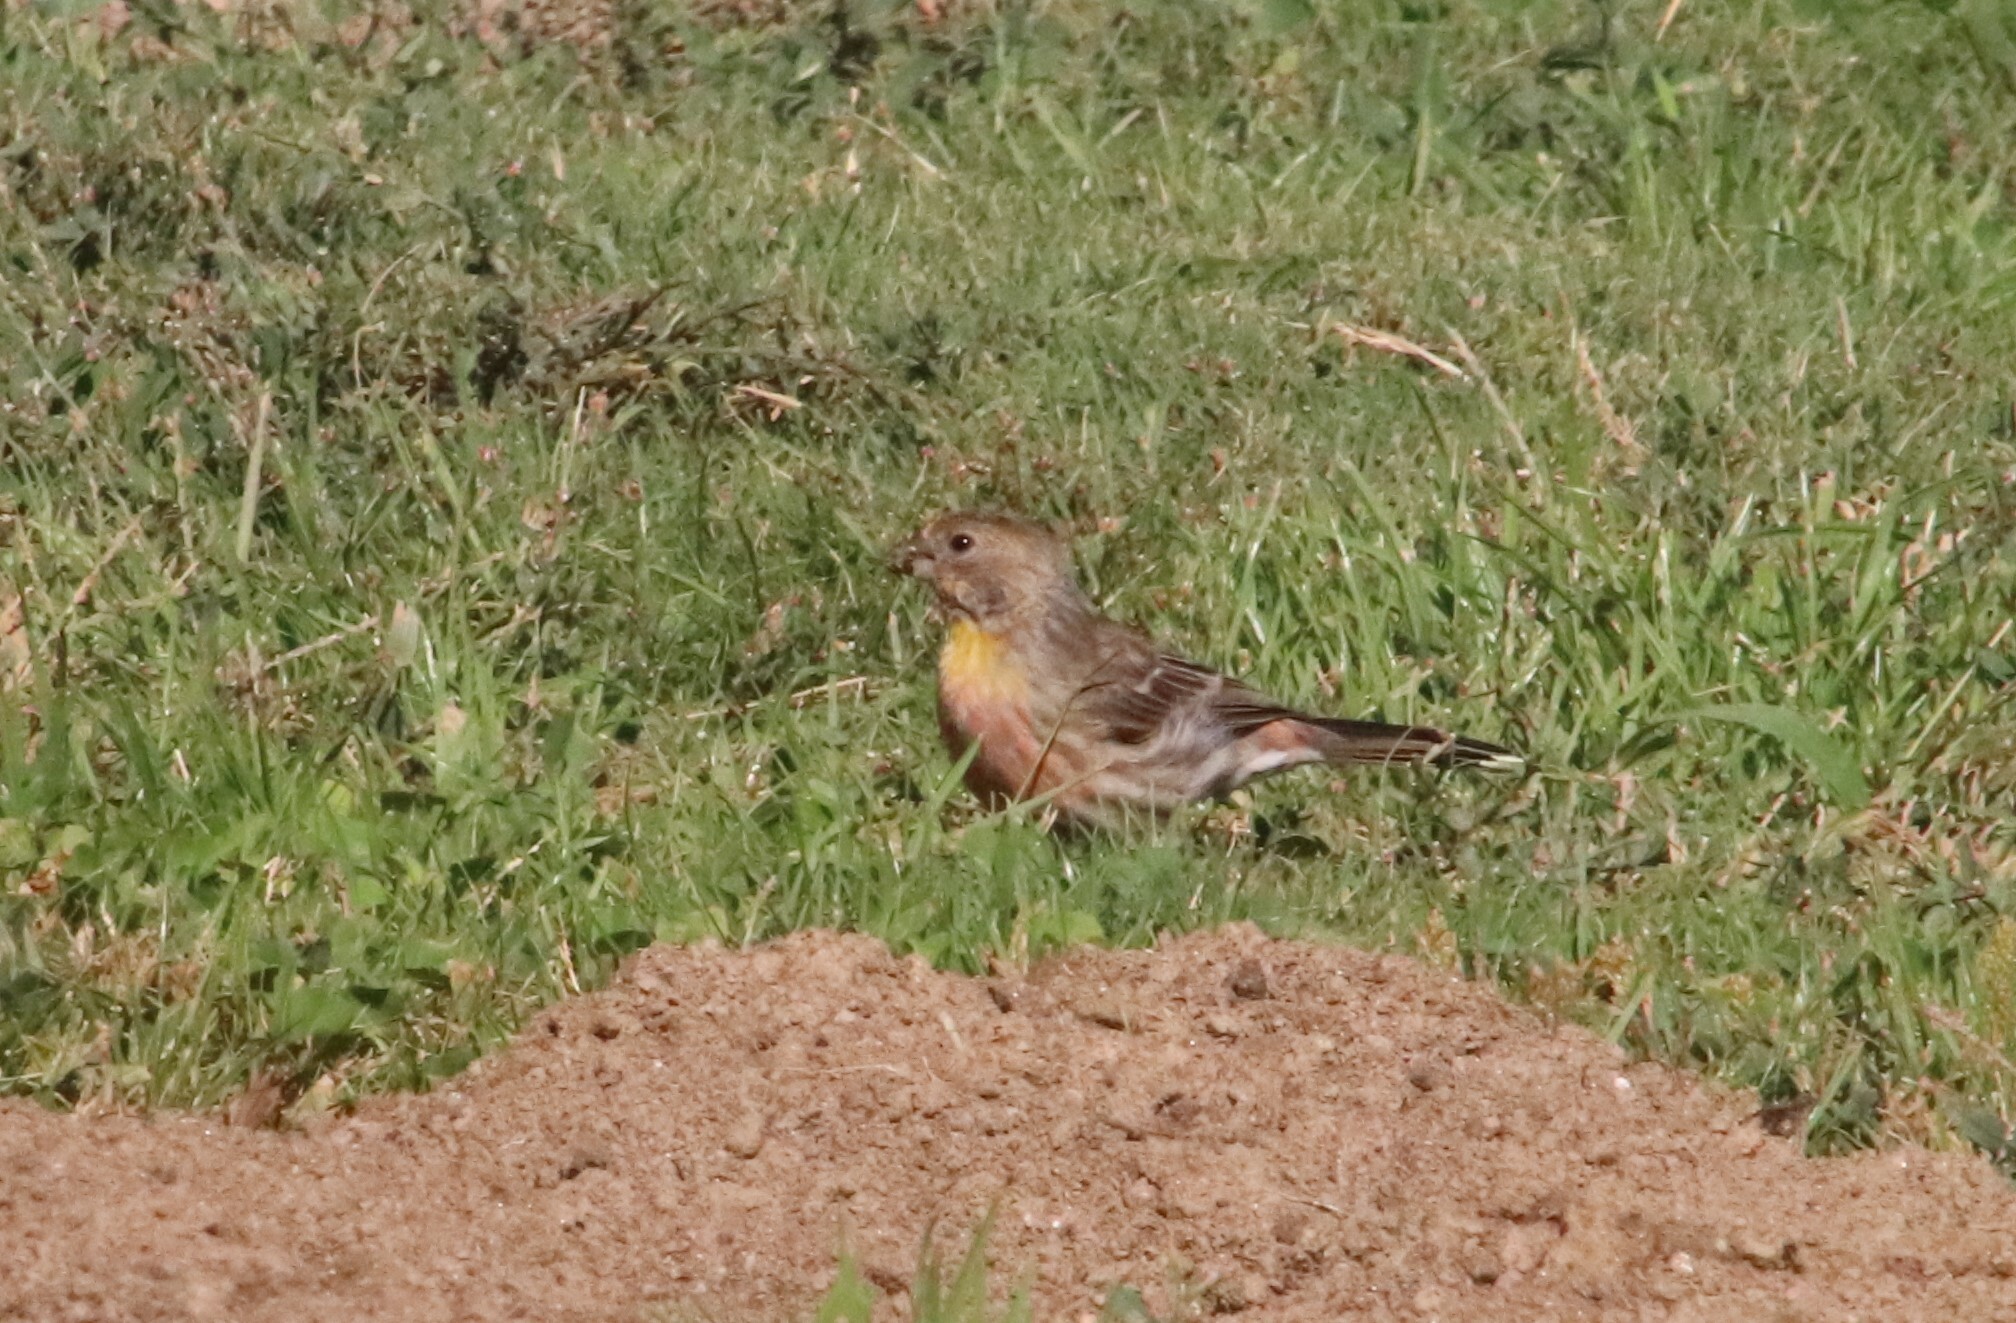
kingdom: Animalia
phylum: Chordata
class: Aves
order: Passeriformes
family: Fringillidae
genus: Haemorhous
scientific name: Haemorhous mexicanus
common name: House finch
